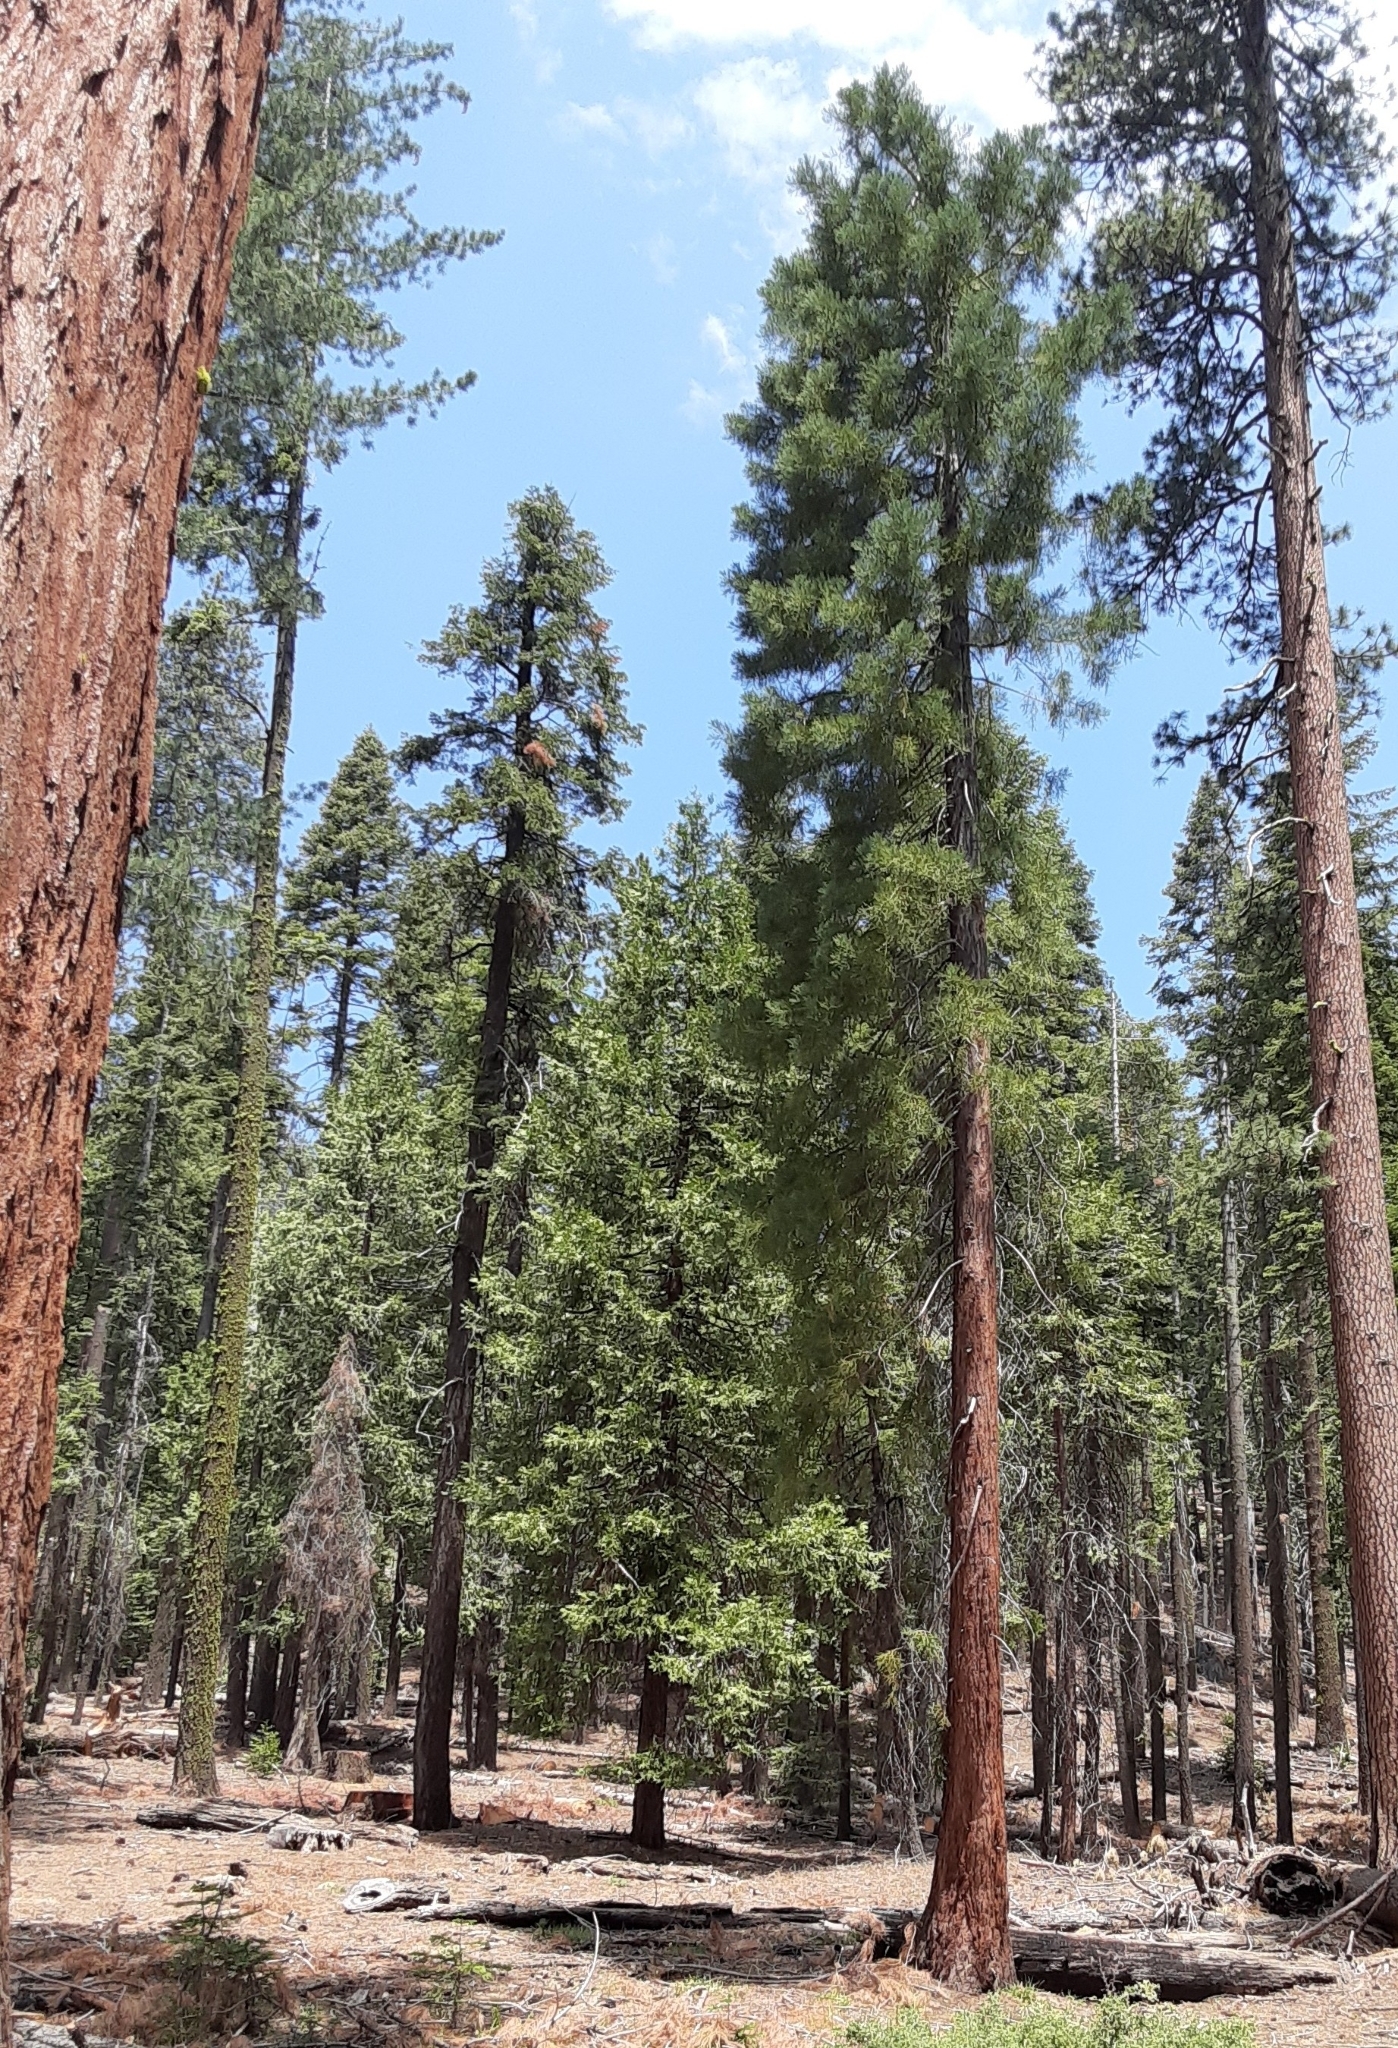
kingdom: Plantae
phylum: Tracheophyta
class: Pinopsida
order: Pinales
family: Cupressaceae
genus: Sequoiadendron
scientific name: Sequoiadendron giganteum
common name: Wellingtonia
